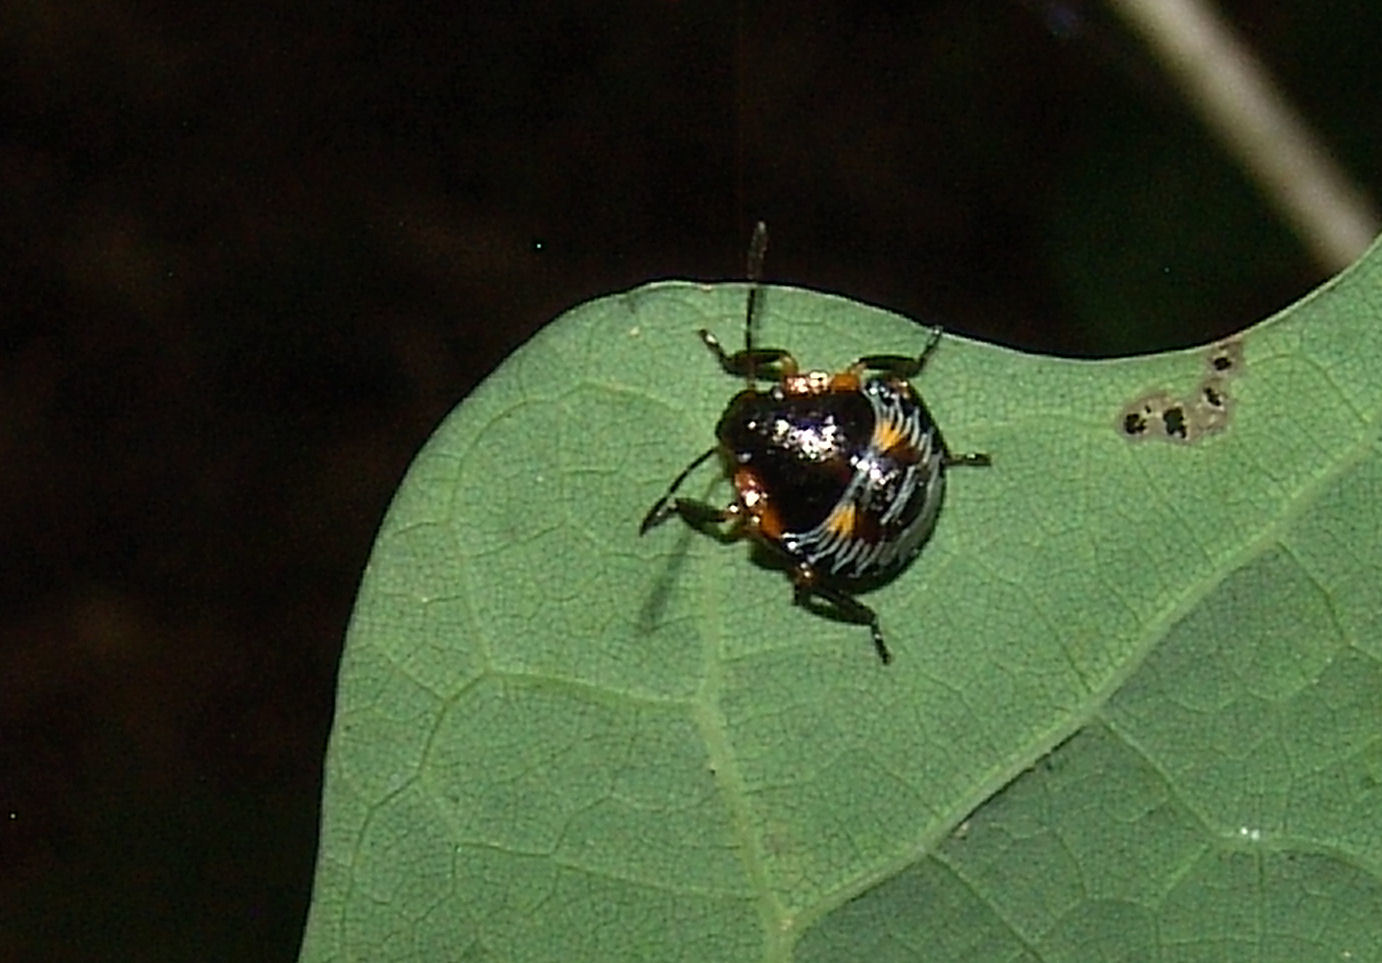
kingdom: Animalia
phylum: Arthropoda
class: Insecta
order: Hemiptera
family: Pentatomidae
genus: Chinavia
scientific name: Chinavia hilaris
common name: Green stink bug
